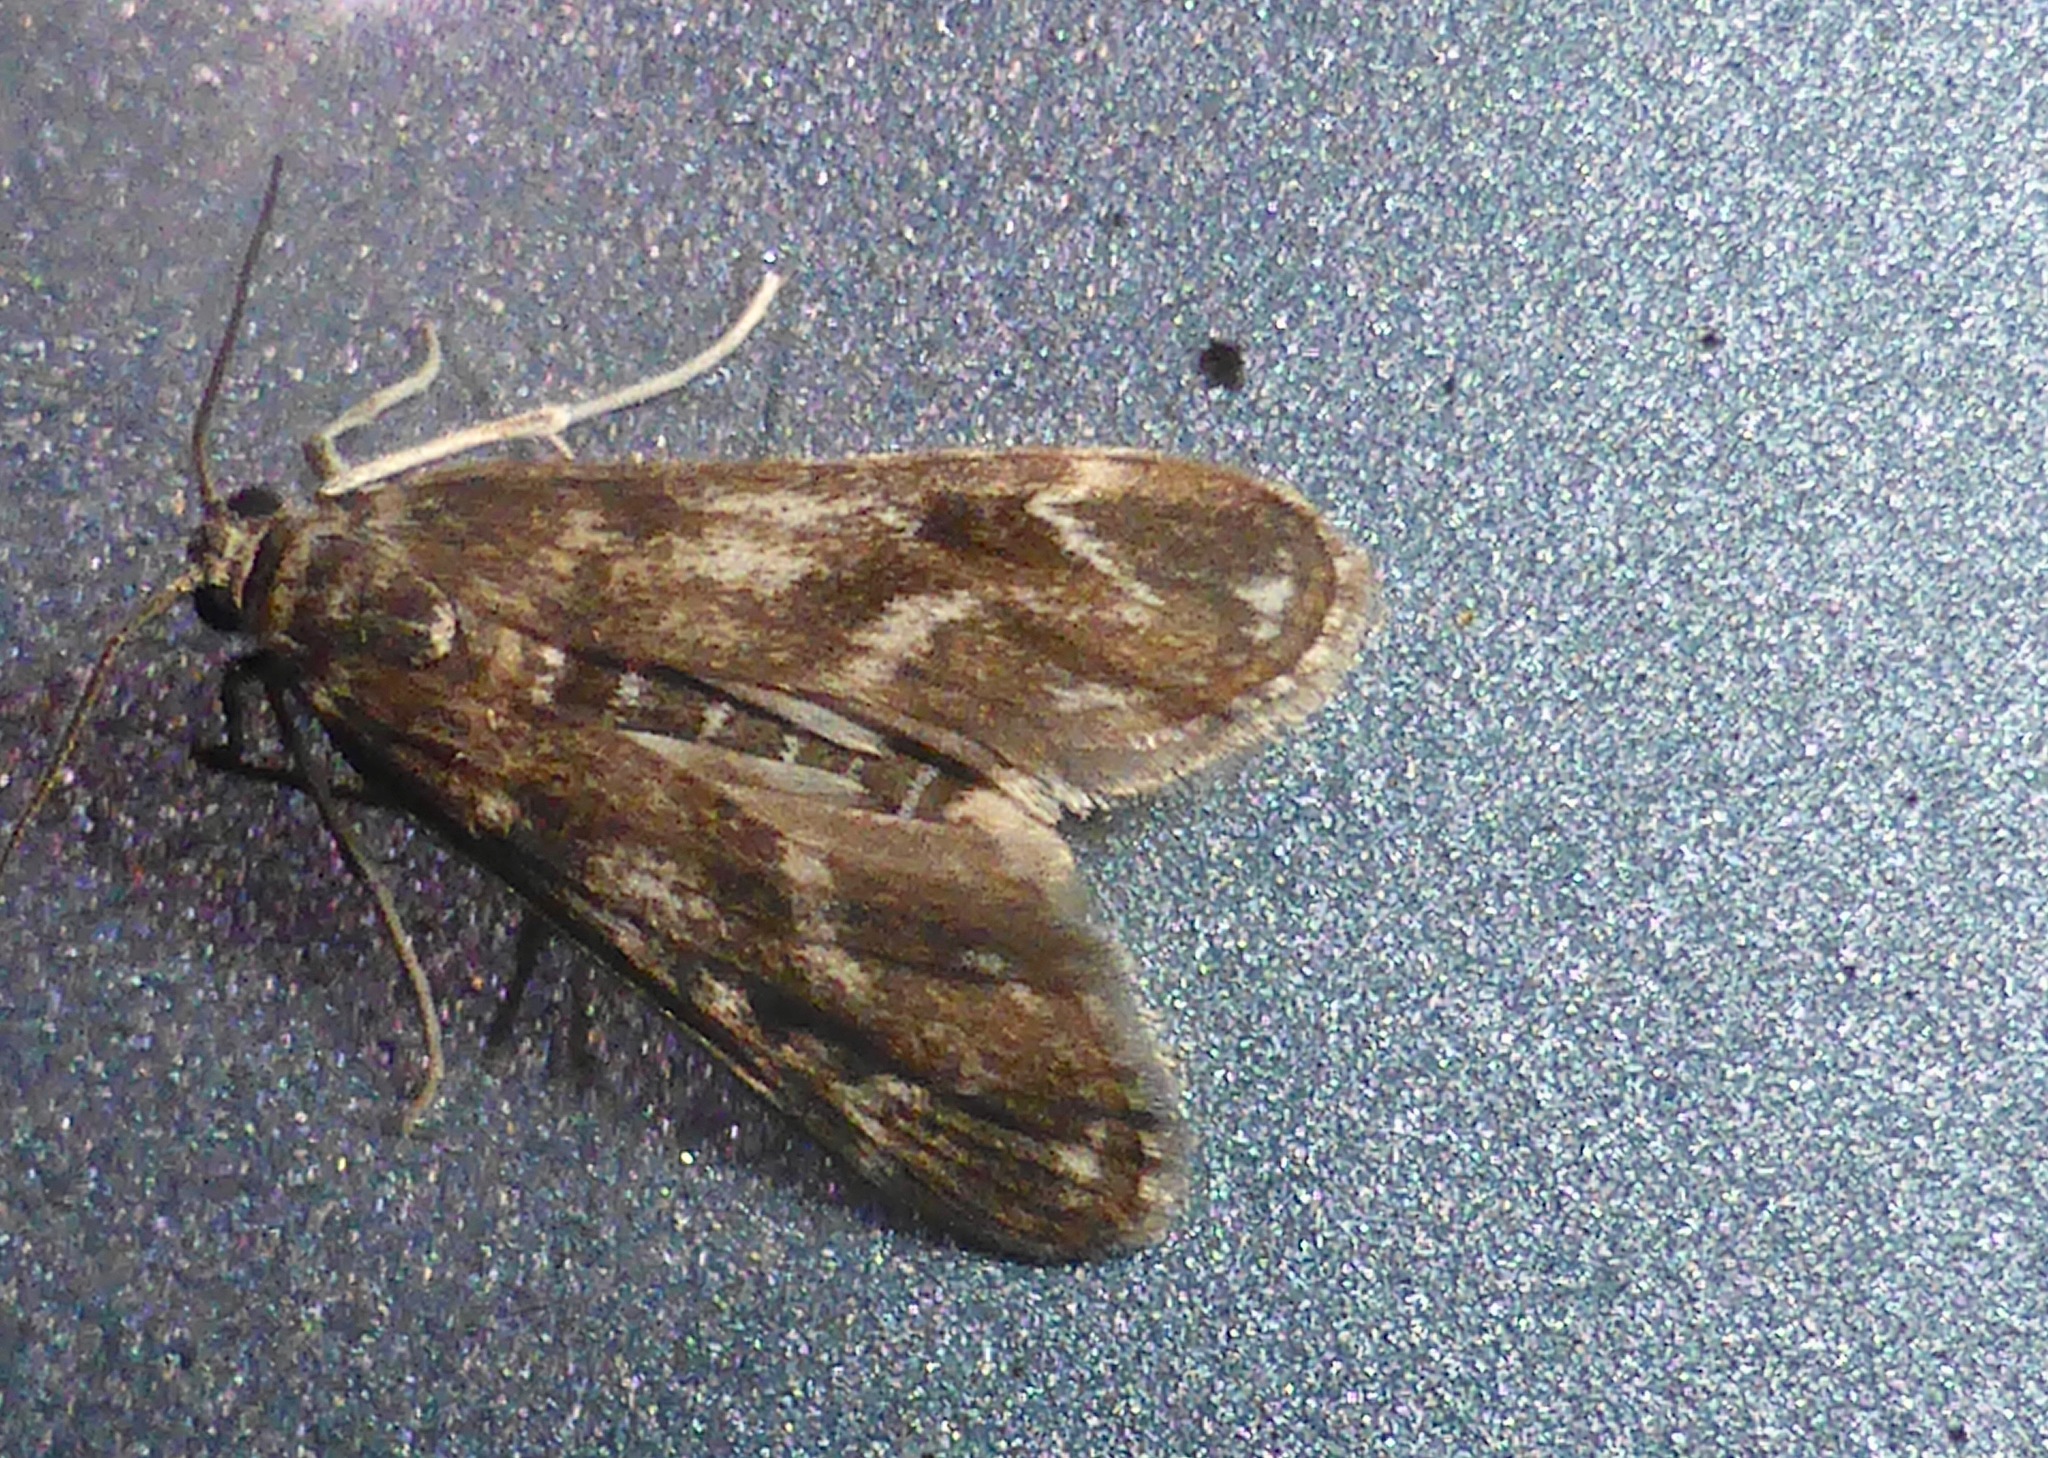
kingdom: Animalia
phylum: Arthropoda
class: Insecta
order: Lepidoptera
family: Crambidae
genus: Hygraula
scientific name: Hygraula nitens
